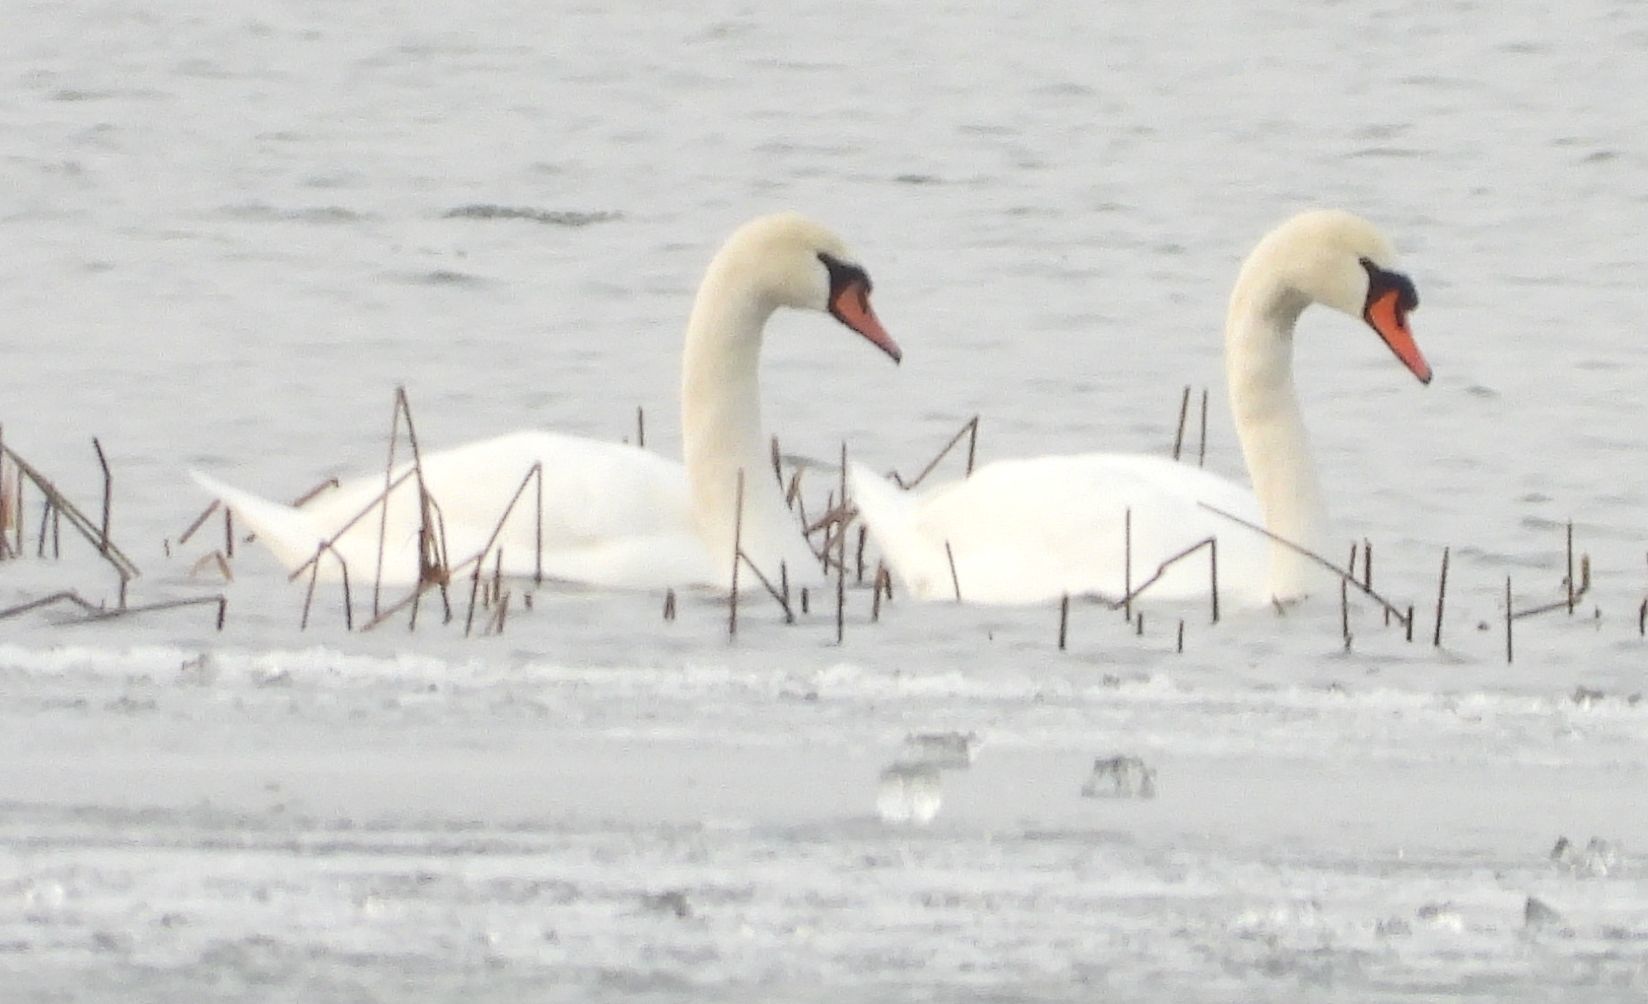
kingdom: Animalia
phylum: Chordata
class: Aves
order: Anseriformes
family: Anatidae
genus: Cygnus
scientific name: Cygnus olor
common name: Mute swan
